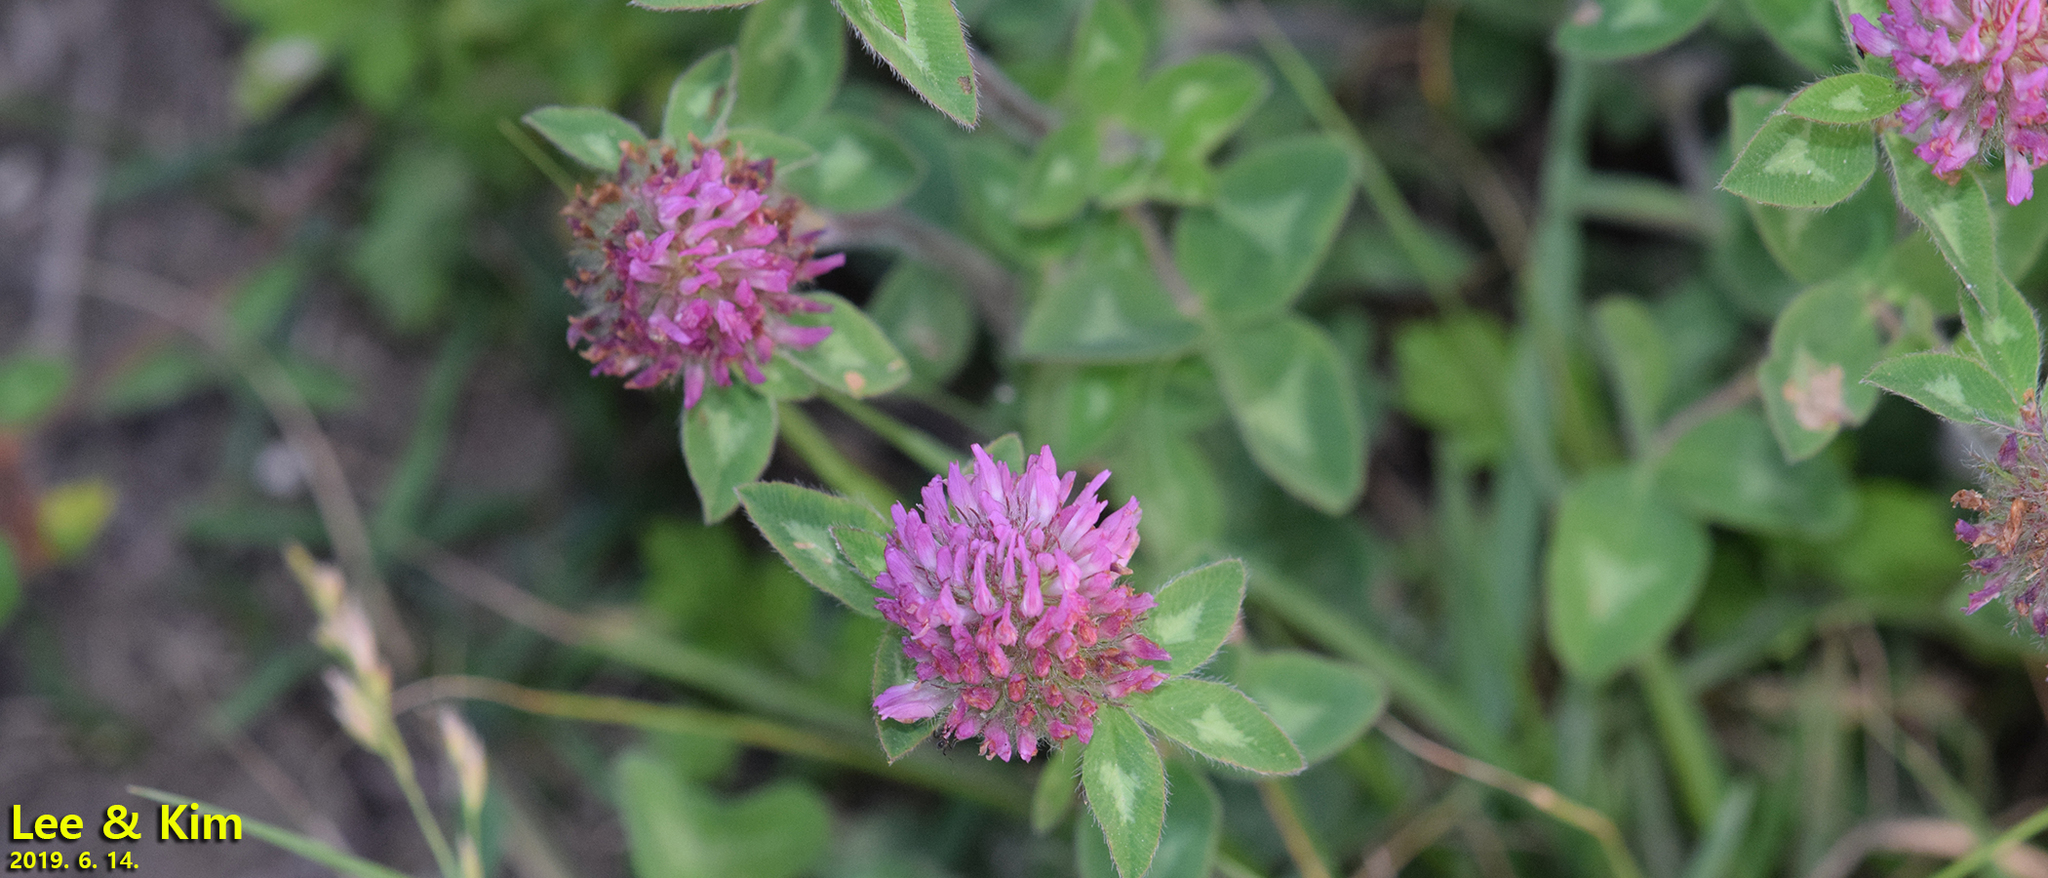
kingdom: Plantae
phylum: Tracheophyta
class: Magnoliopsida
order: Fabales
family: Fabaceae
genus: Trifolium
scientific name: Trifolium pratense
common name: Red clover
